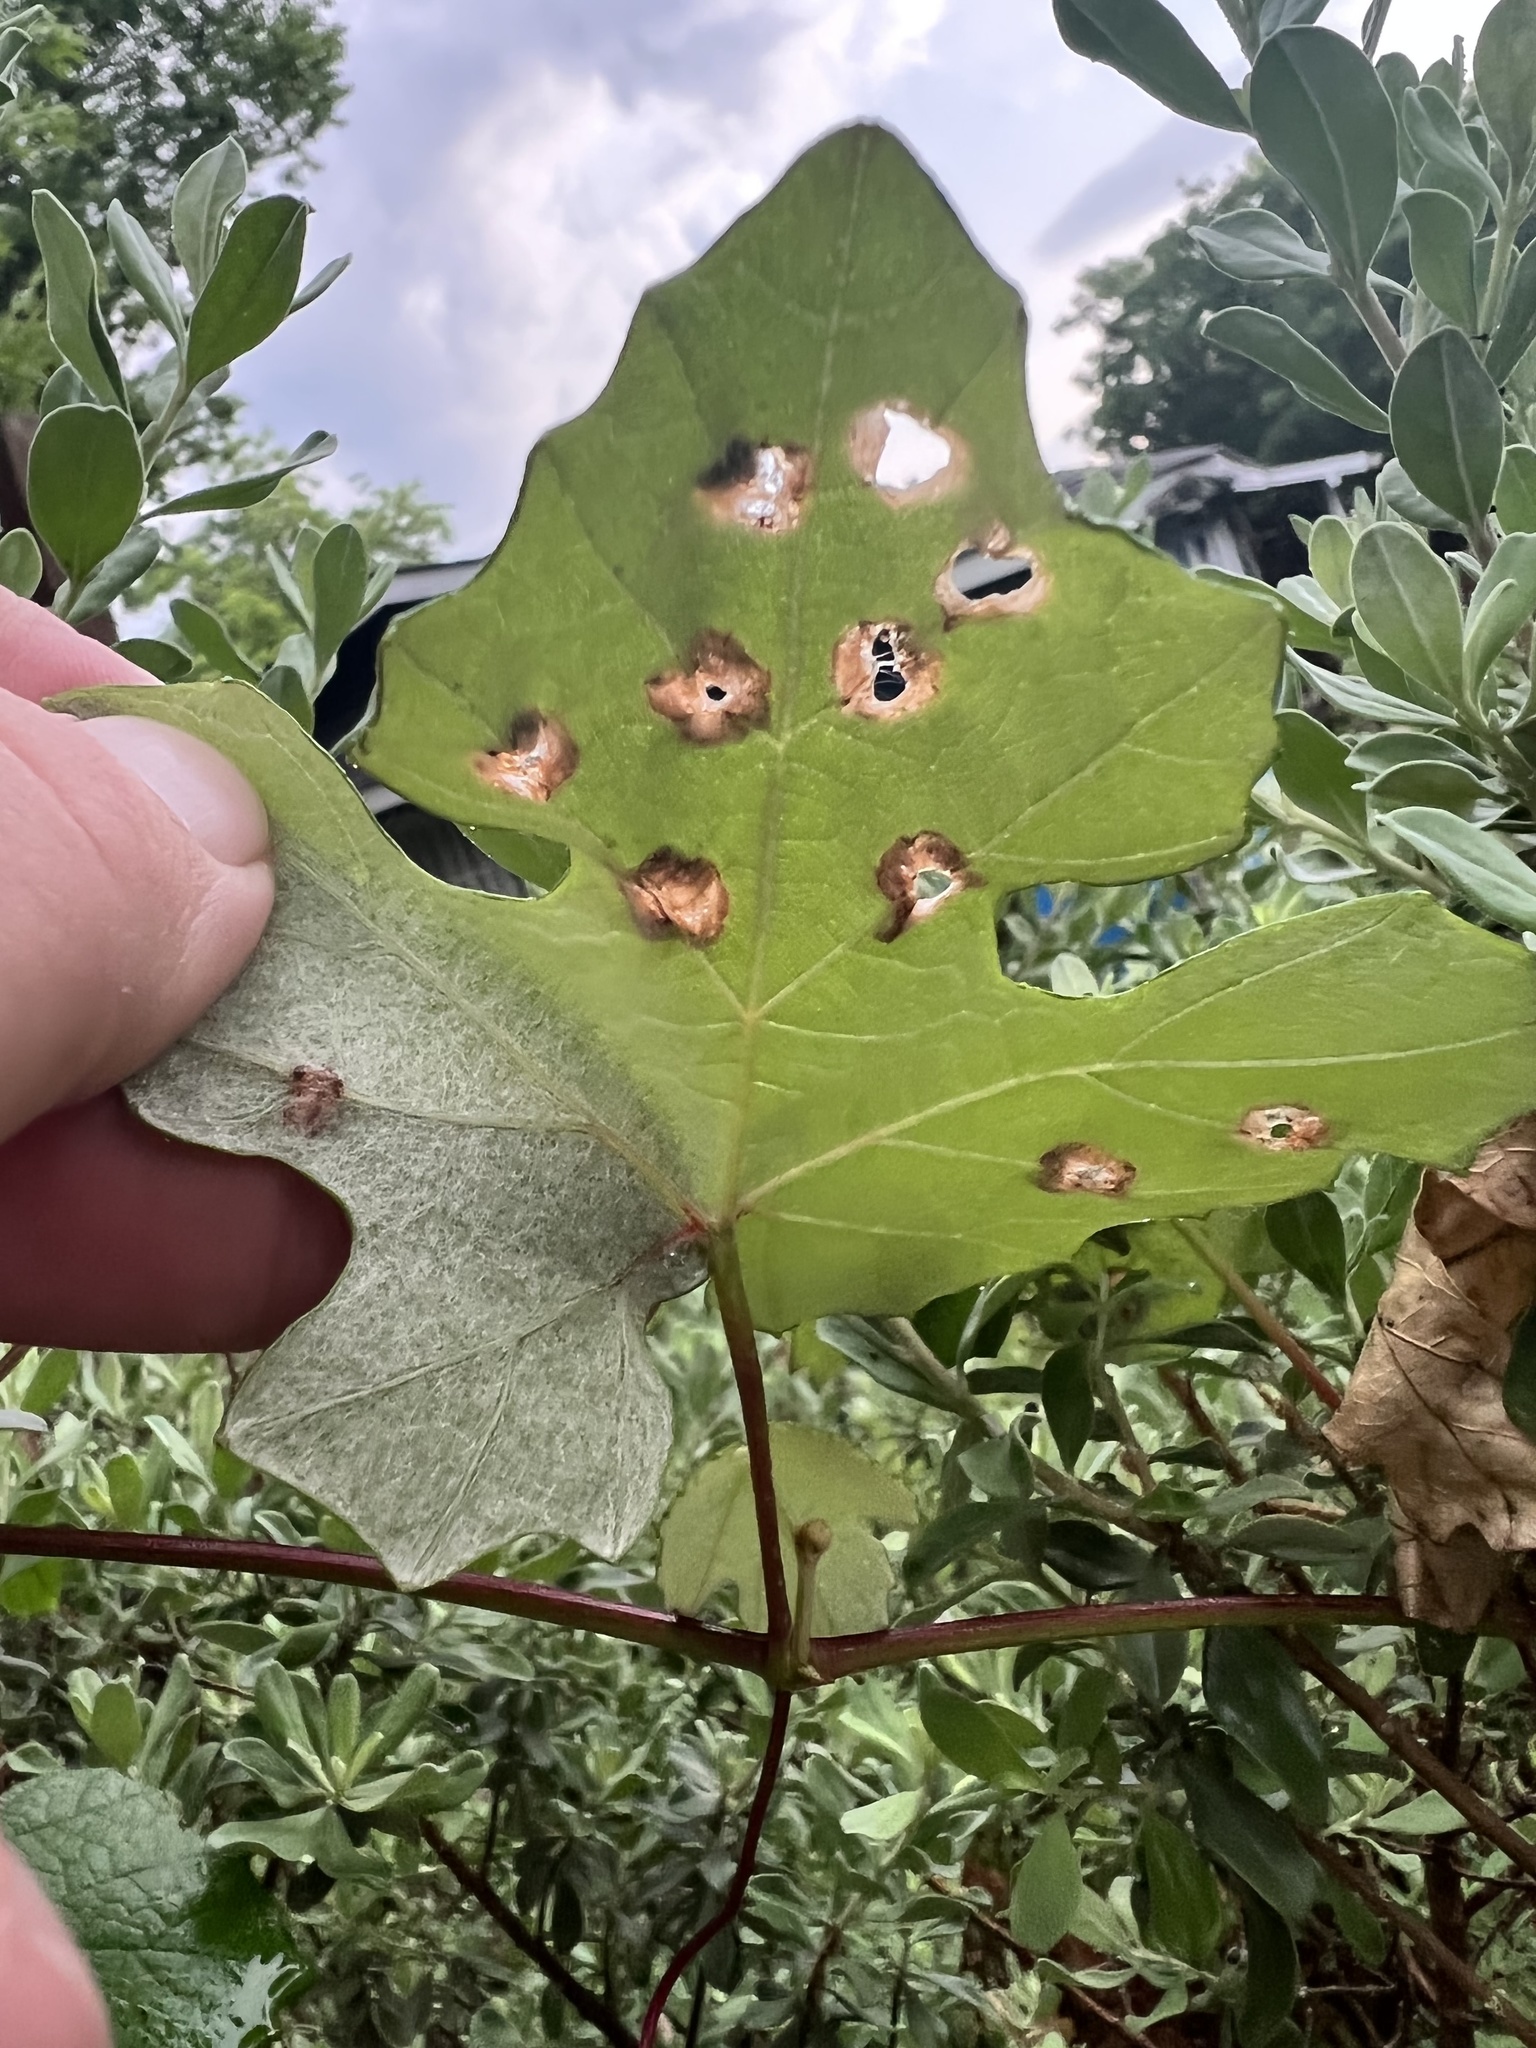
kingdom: Animalia
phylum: Arthropoda
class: Insecta
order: Lepidoptera
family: Heliozelidae
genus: Heliozela
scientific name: Heliozela aesella
